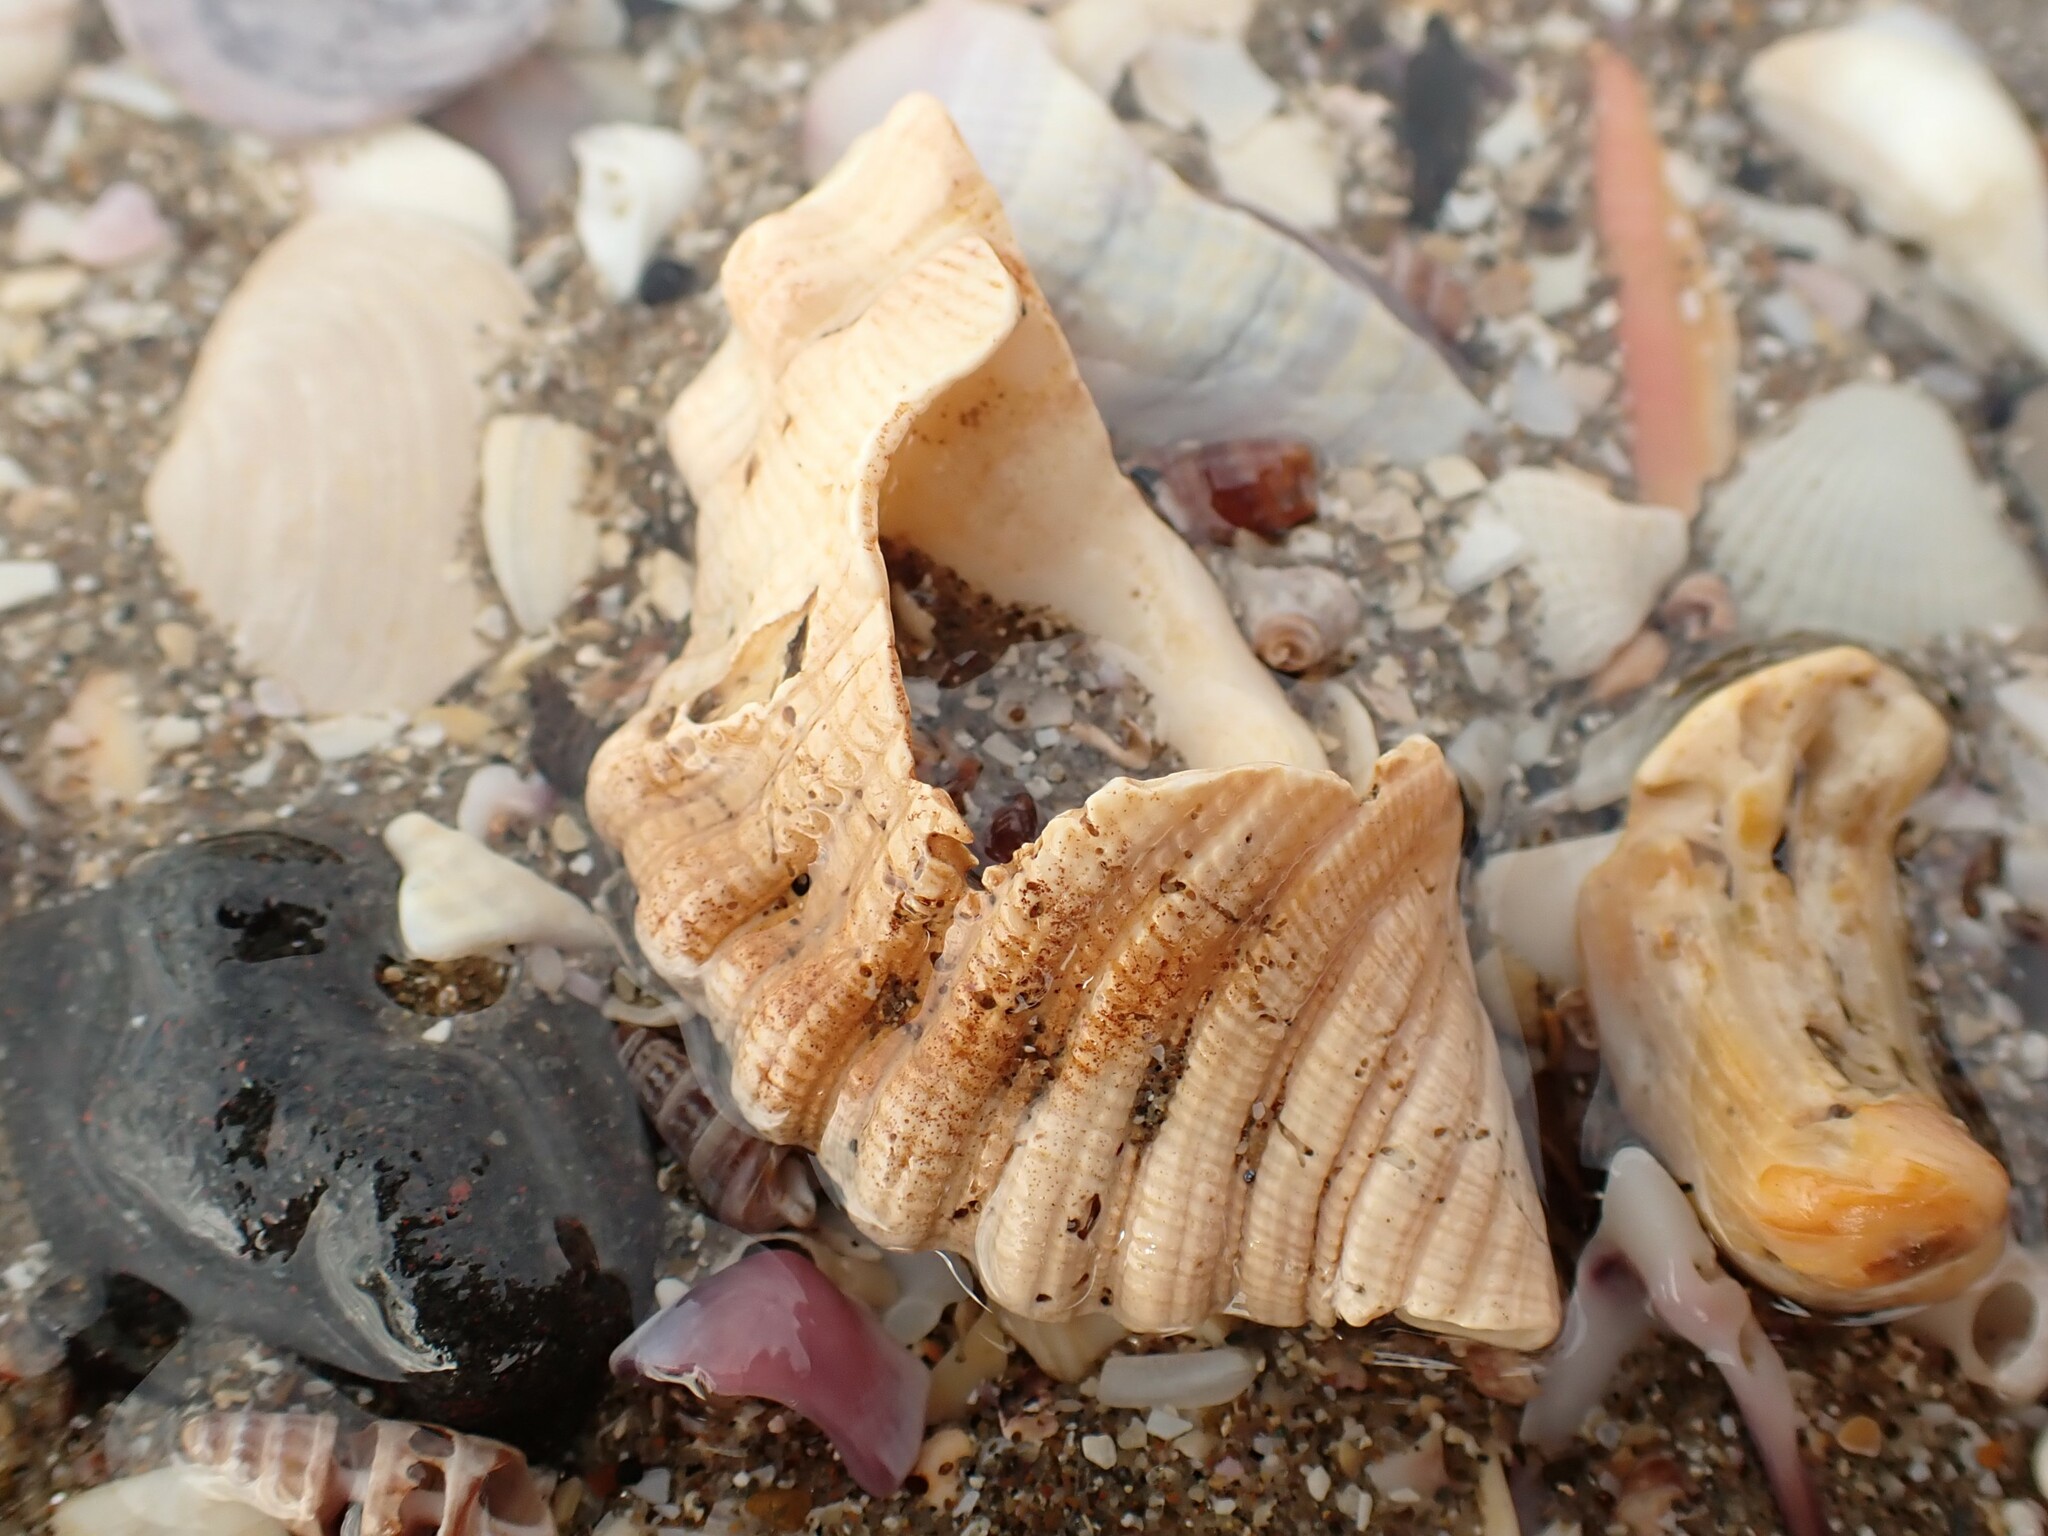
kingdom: Animalia
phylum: Mollusca
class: Gastropoda
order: Littorinimorpha
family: Cymatiidae
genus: Cabestana
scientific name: Cabestana spengleri
